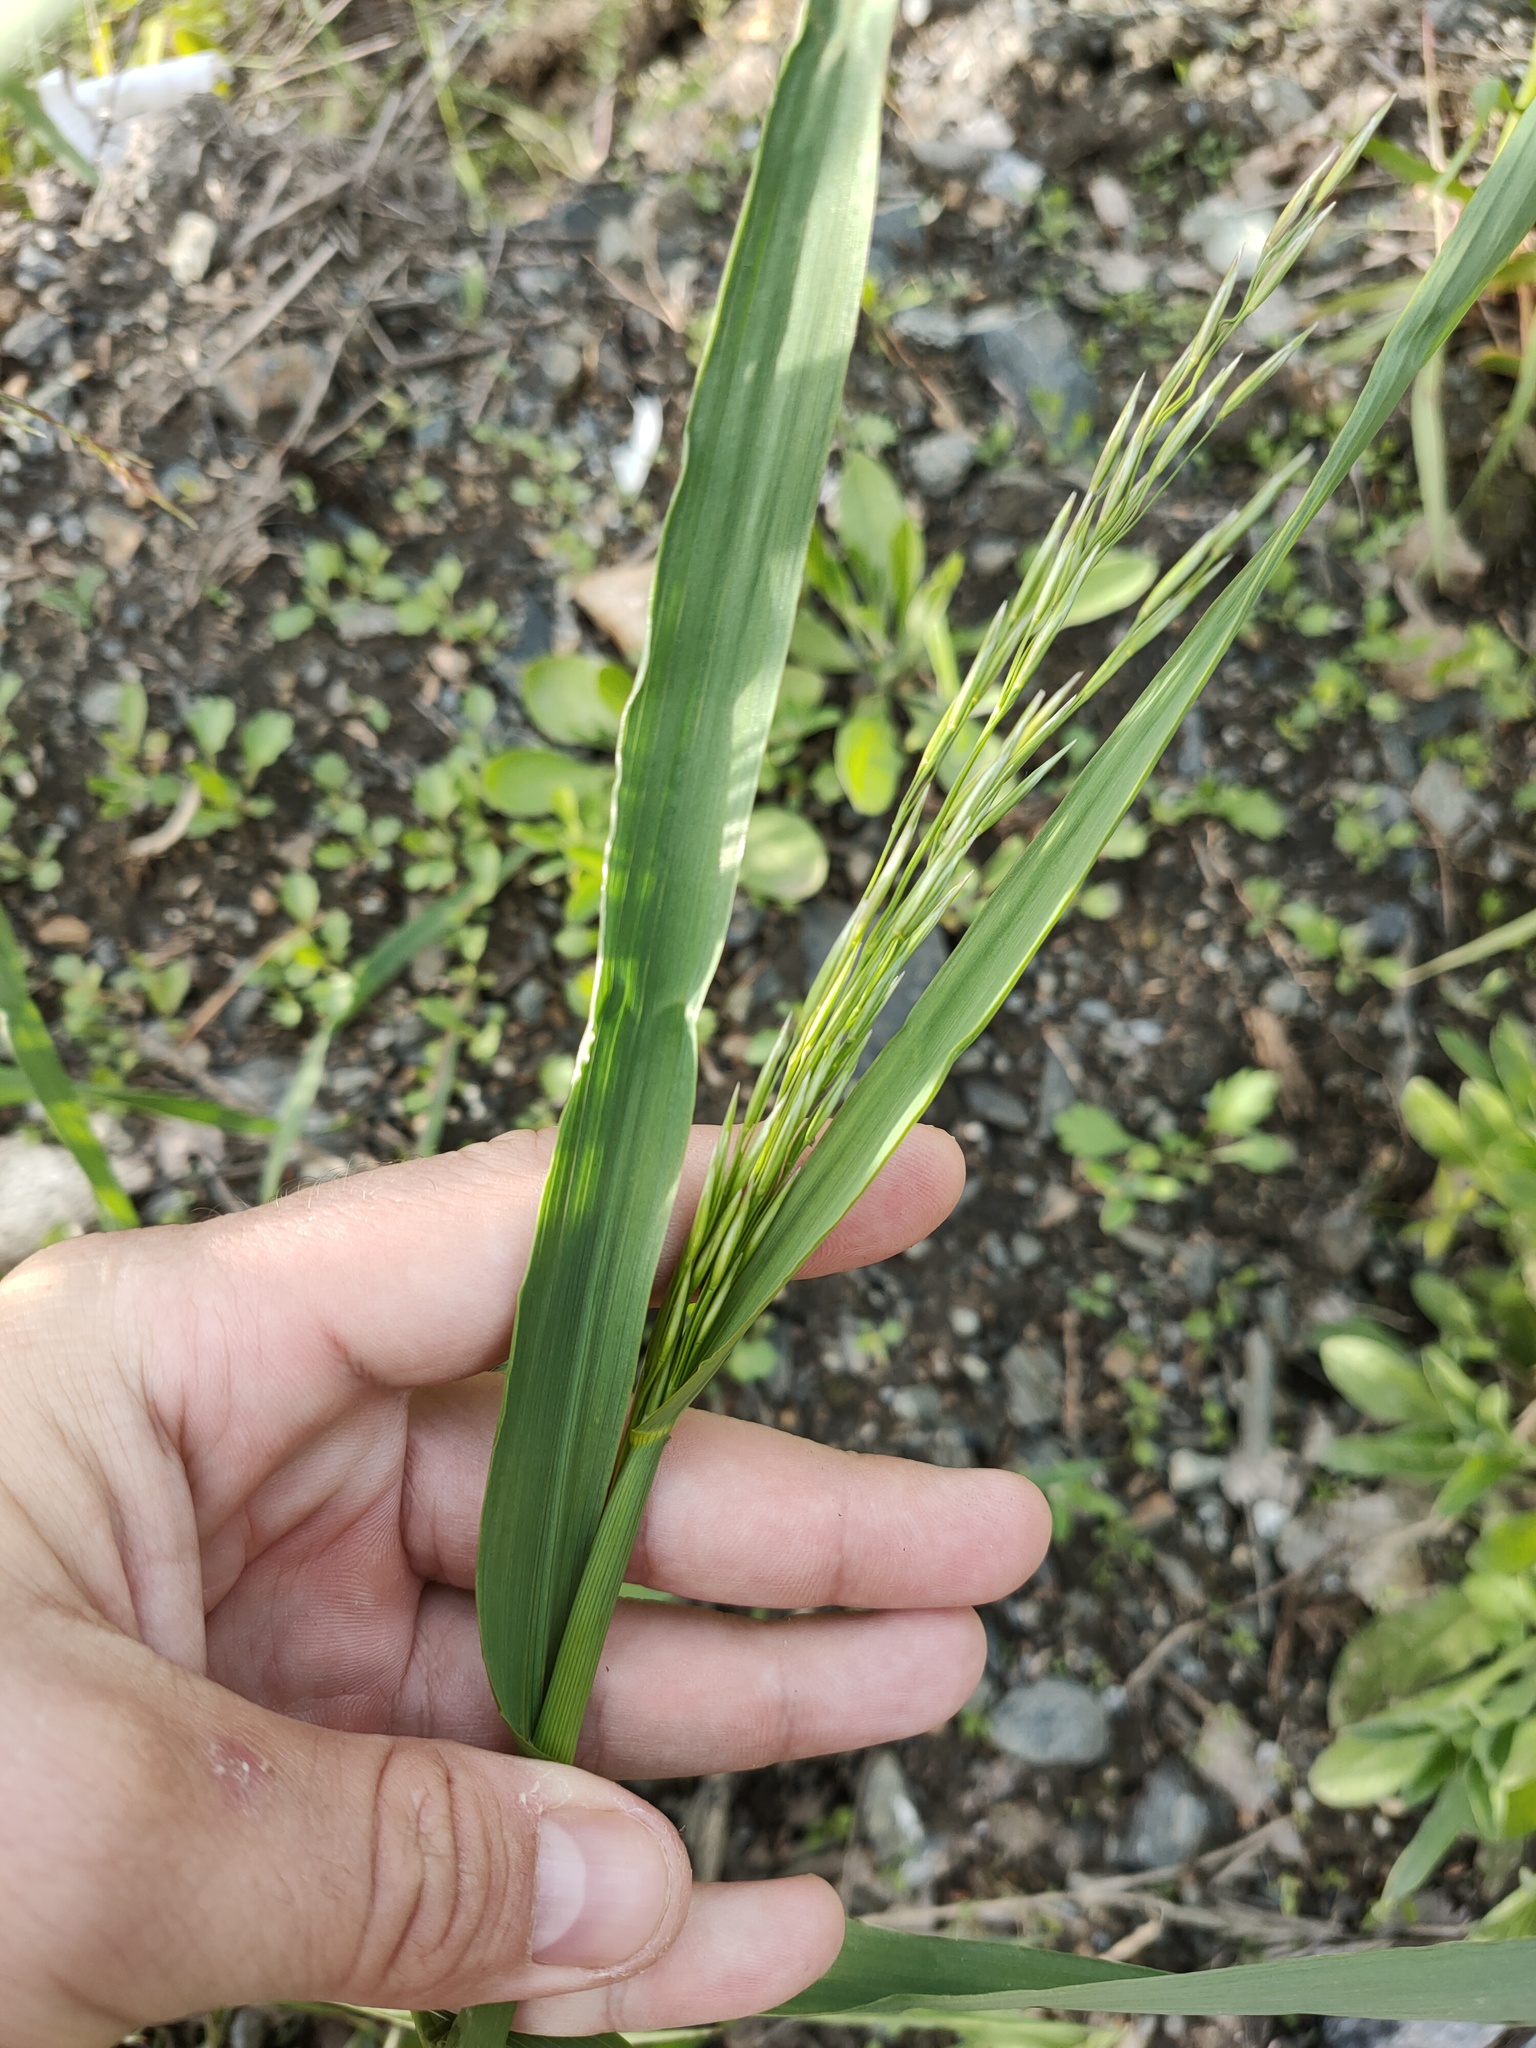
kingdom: Plantae
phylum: Tracheophyta
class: Liliopsida
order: Poales
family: Poaceae
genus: Bromus
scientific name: Bromus inermis
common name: Smooth brome
